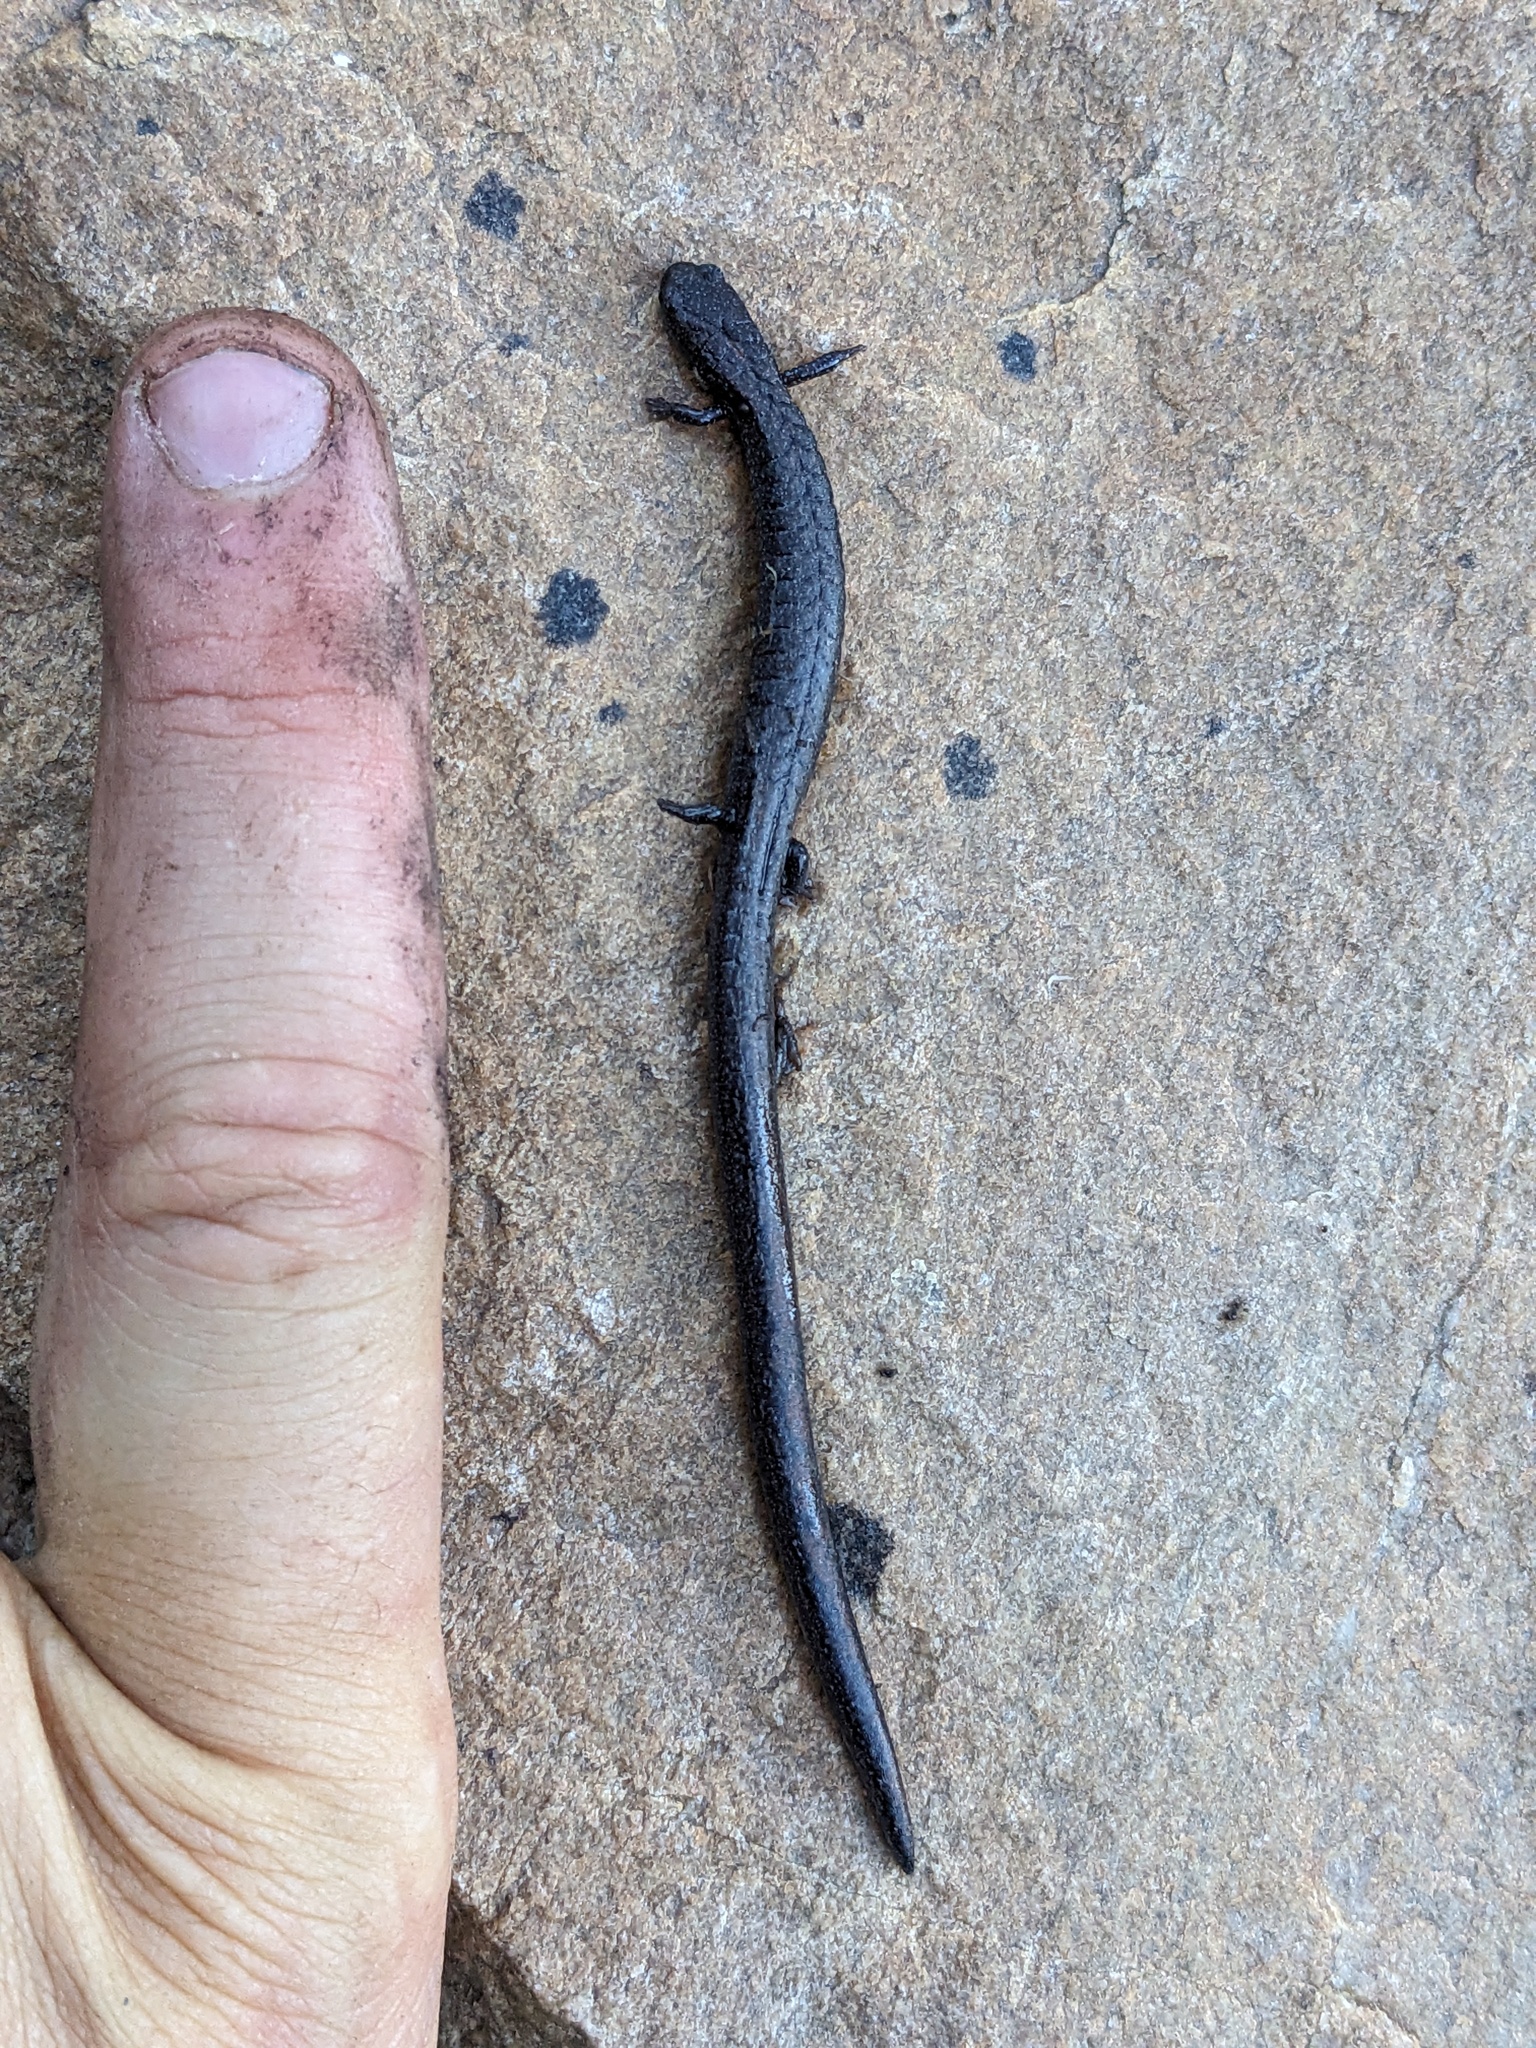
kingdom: Animalia
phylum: Chordata
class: Amphibia
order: Caudata
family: Plethodontidae
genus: Batrachoseps
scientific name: Batrachoseps altasierrae
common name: Greenhorn mountains slender salamander
